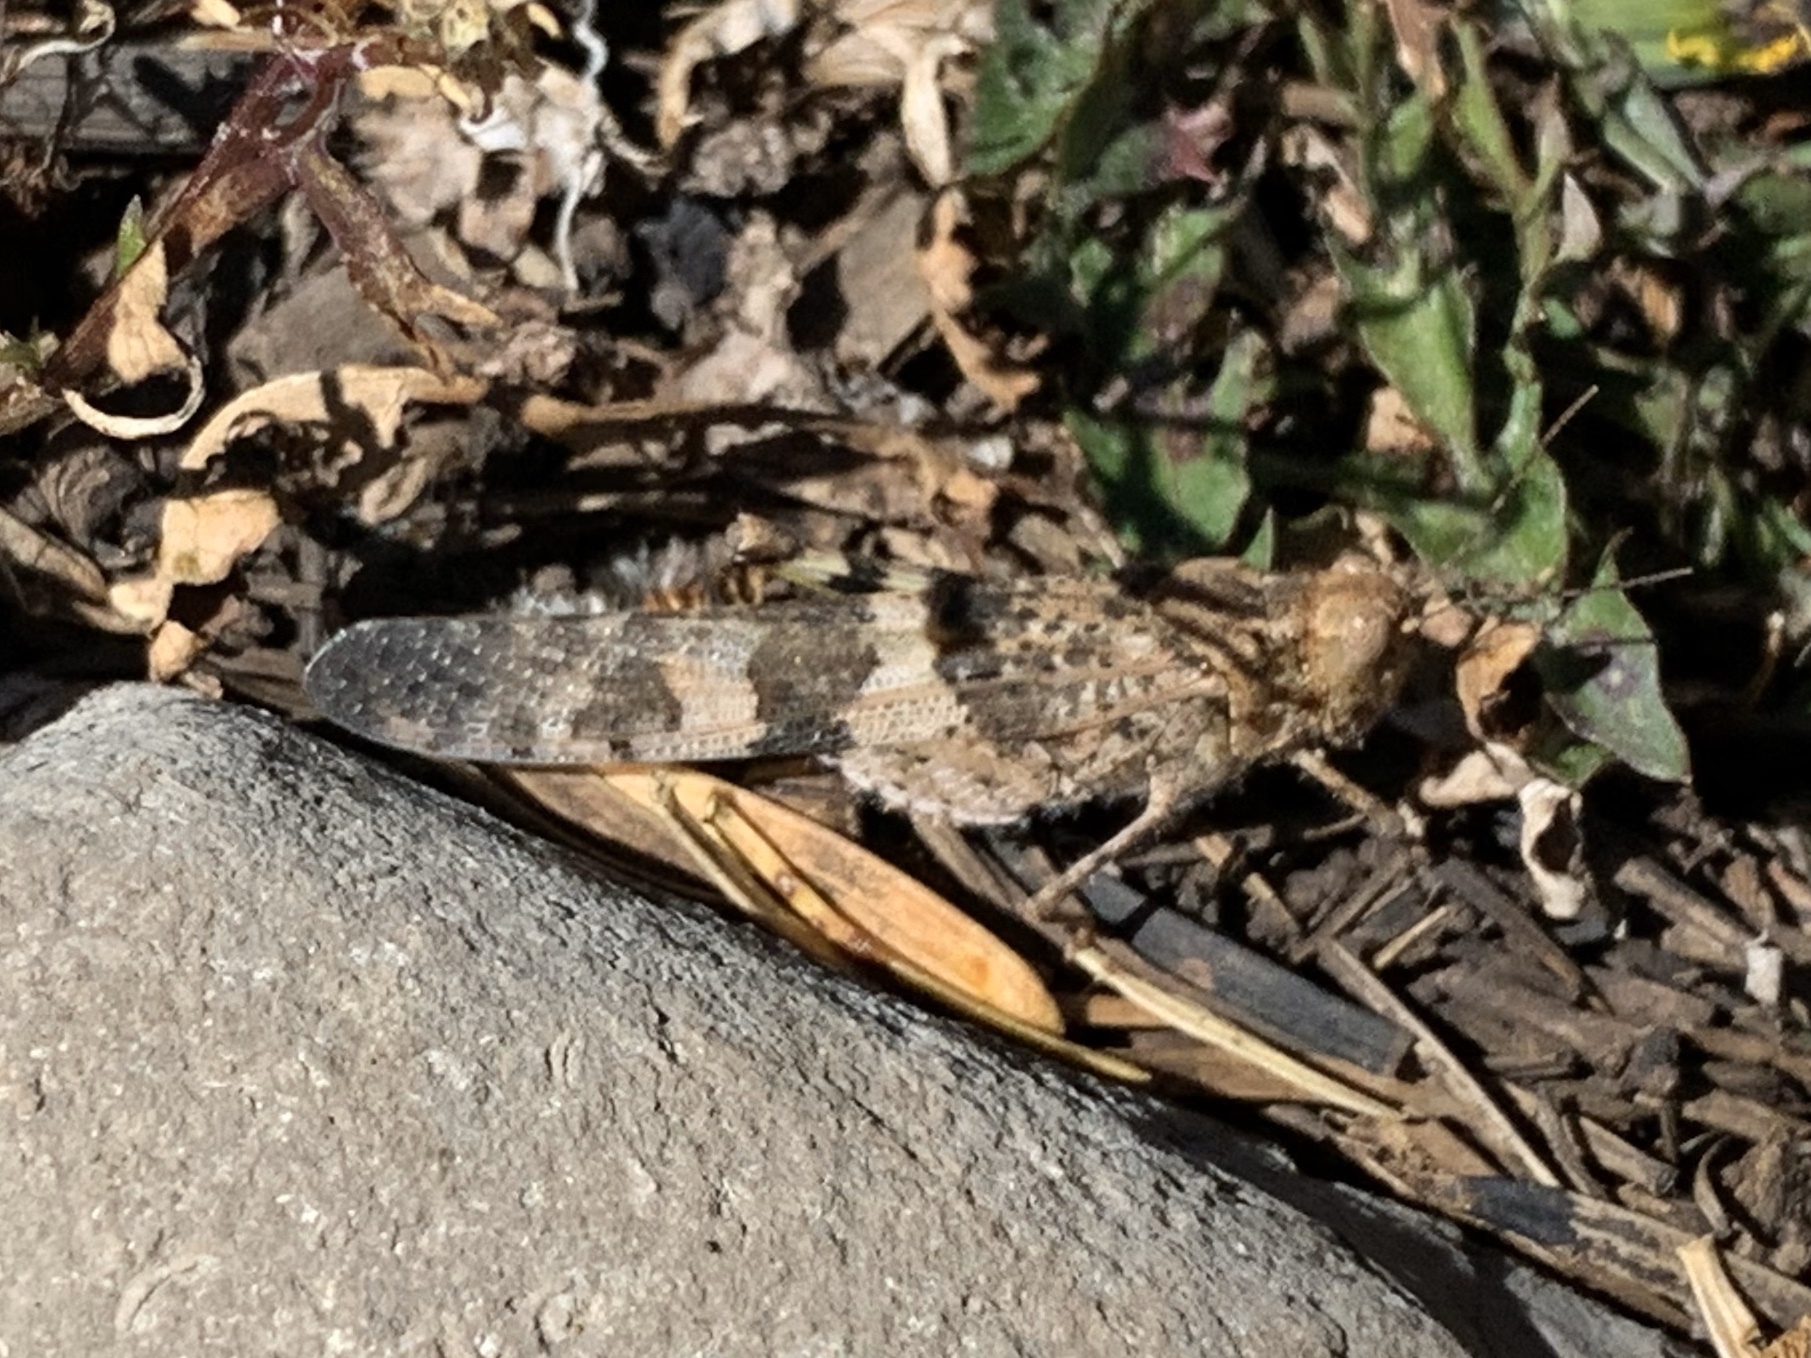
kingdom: Animalia
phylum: Arthropoda
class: Insecta
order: Orthoptera
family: Acrididae
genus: Trimerotropis
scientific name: Trimerotropis pallidipennis
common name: Pallid-winged grasshopper
